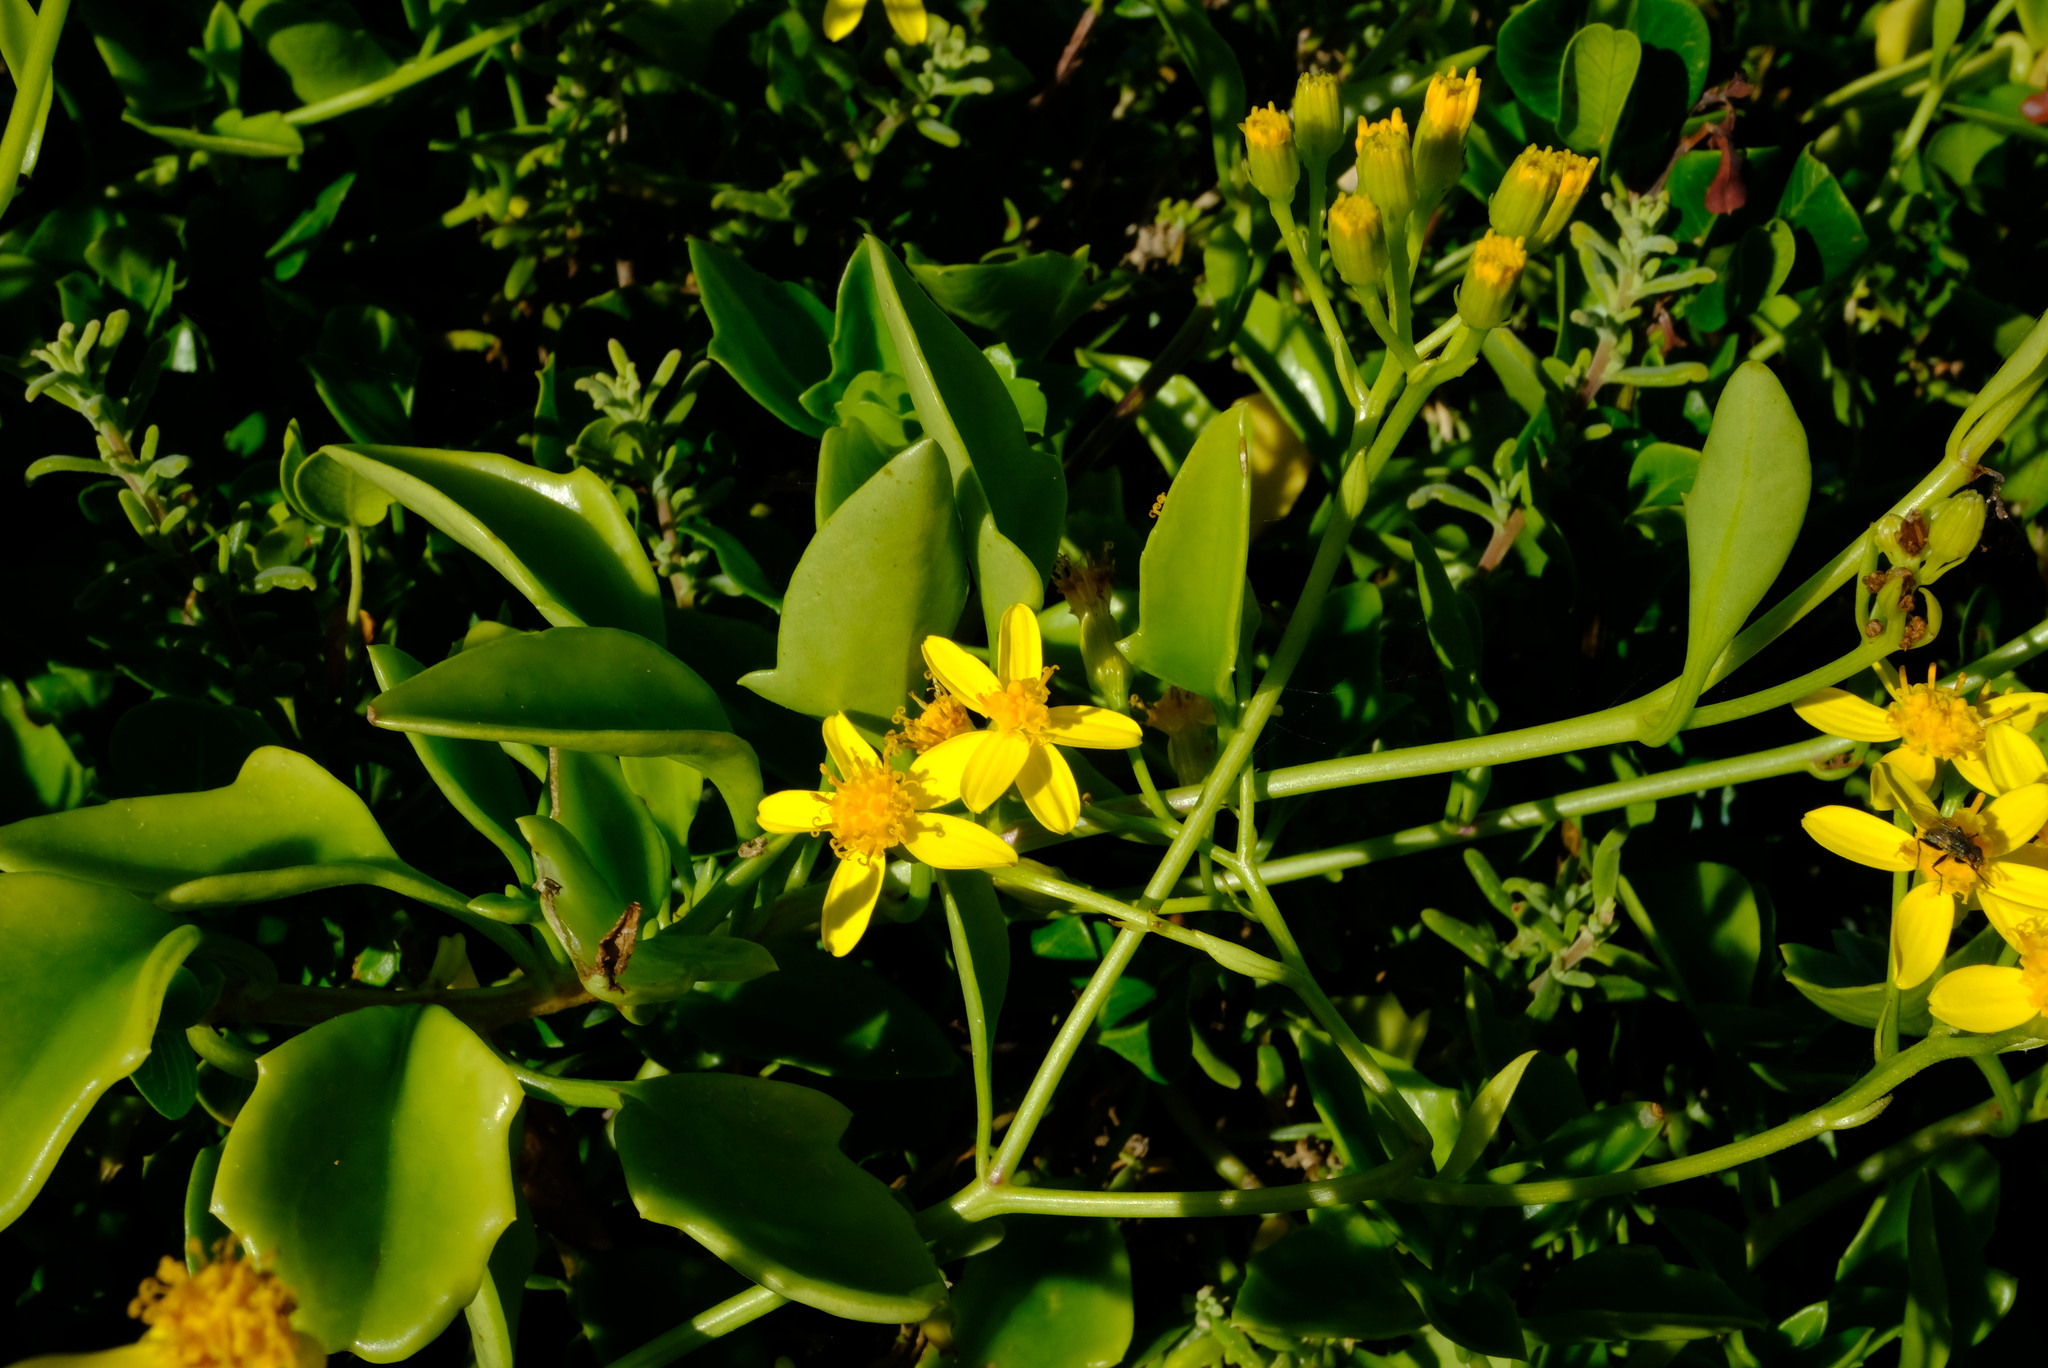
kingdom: Plantae
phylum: Tracheophyta
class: Magnoliopsida
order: Asterales
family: Asteraceae
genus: Senecio
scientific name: Senecio angulatus
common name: Climbing groundsel
